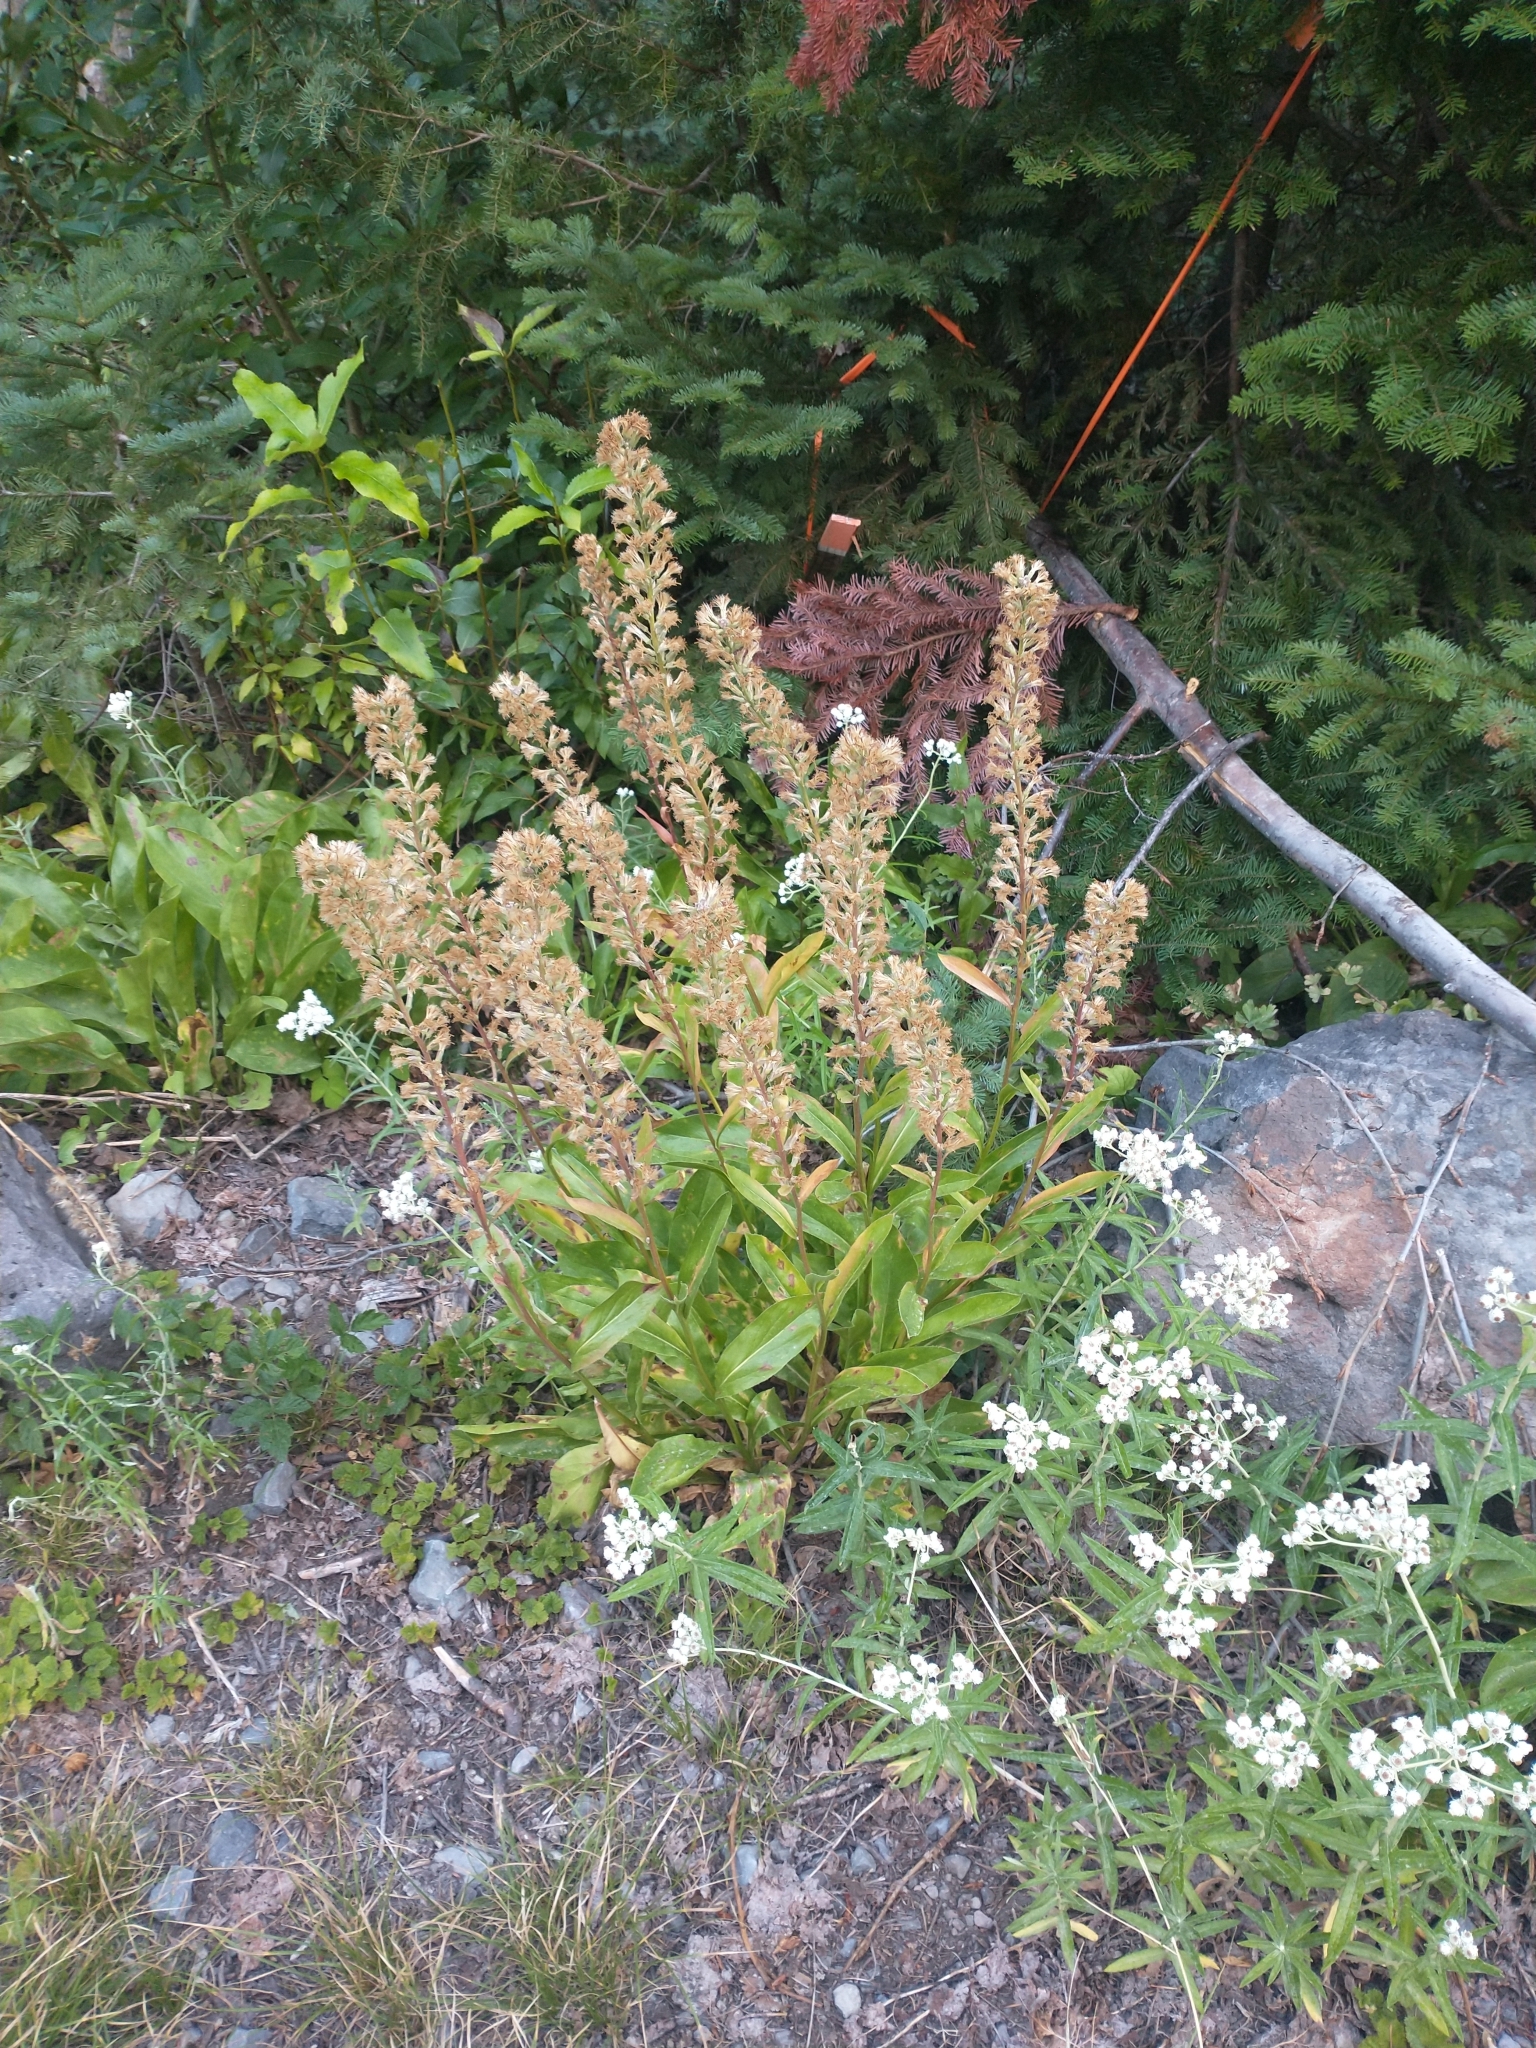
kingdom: Plantae
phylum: Tracheophyta
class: Magnoliopsida
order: Asterales
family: Asteraceae
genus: Rainiera
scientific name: Rainiera stricta
